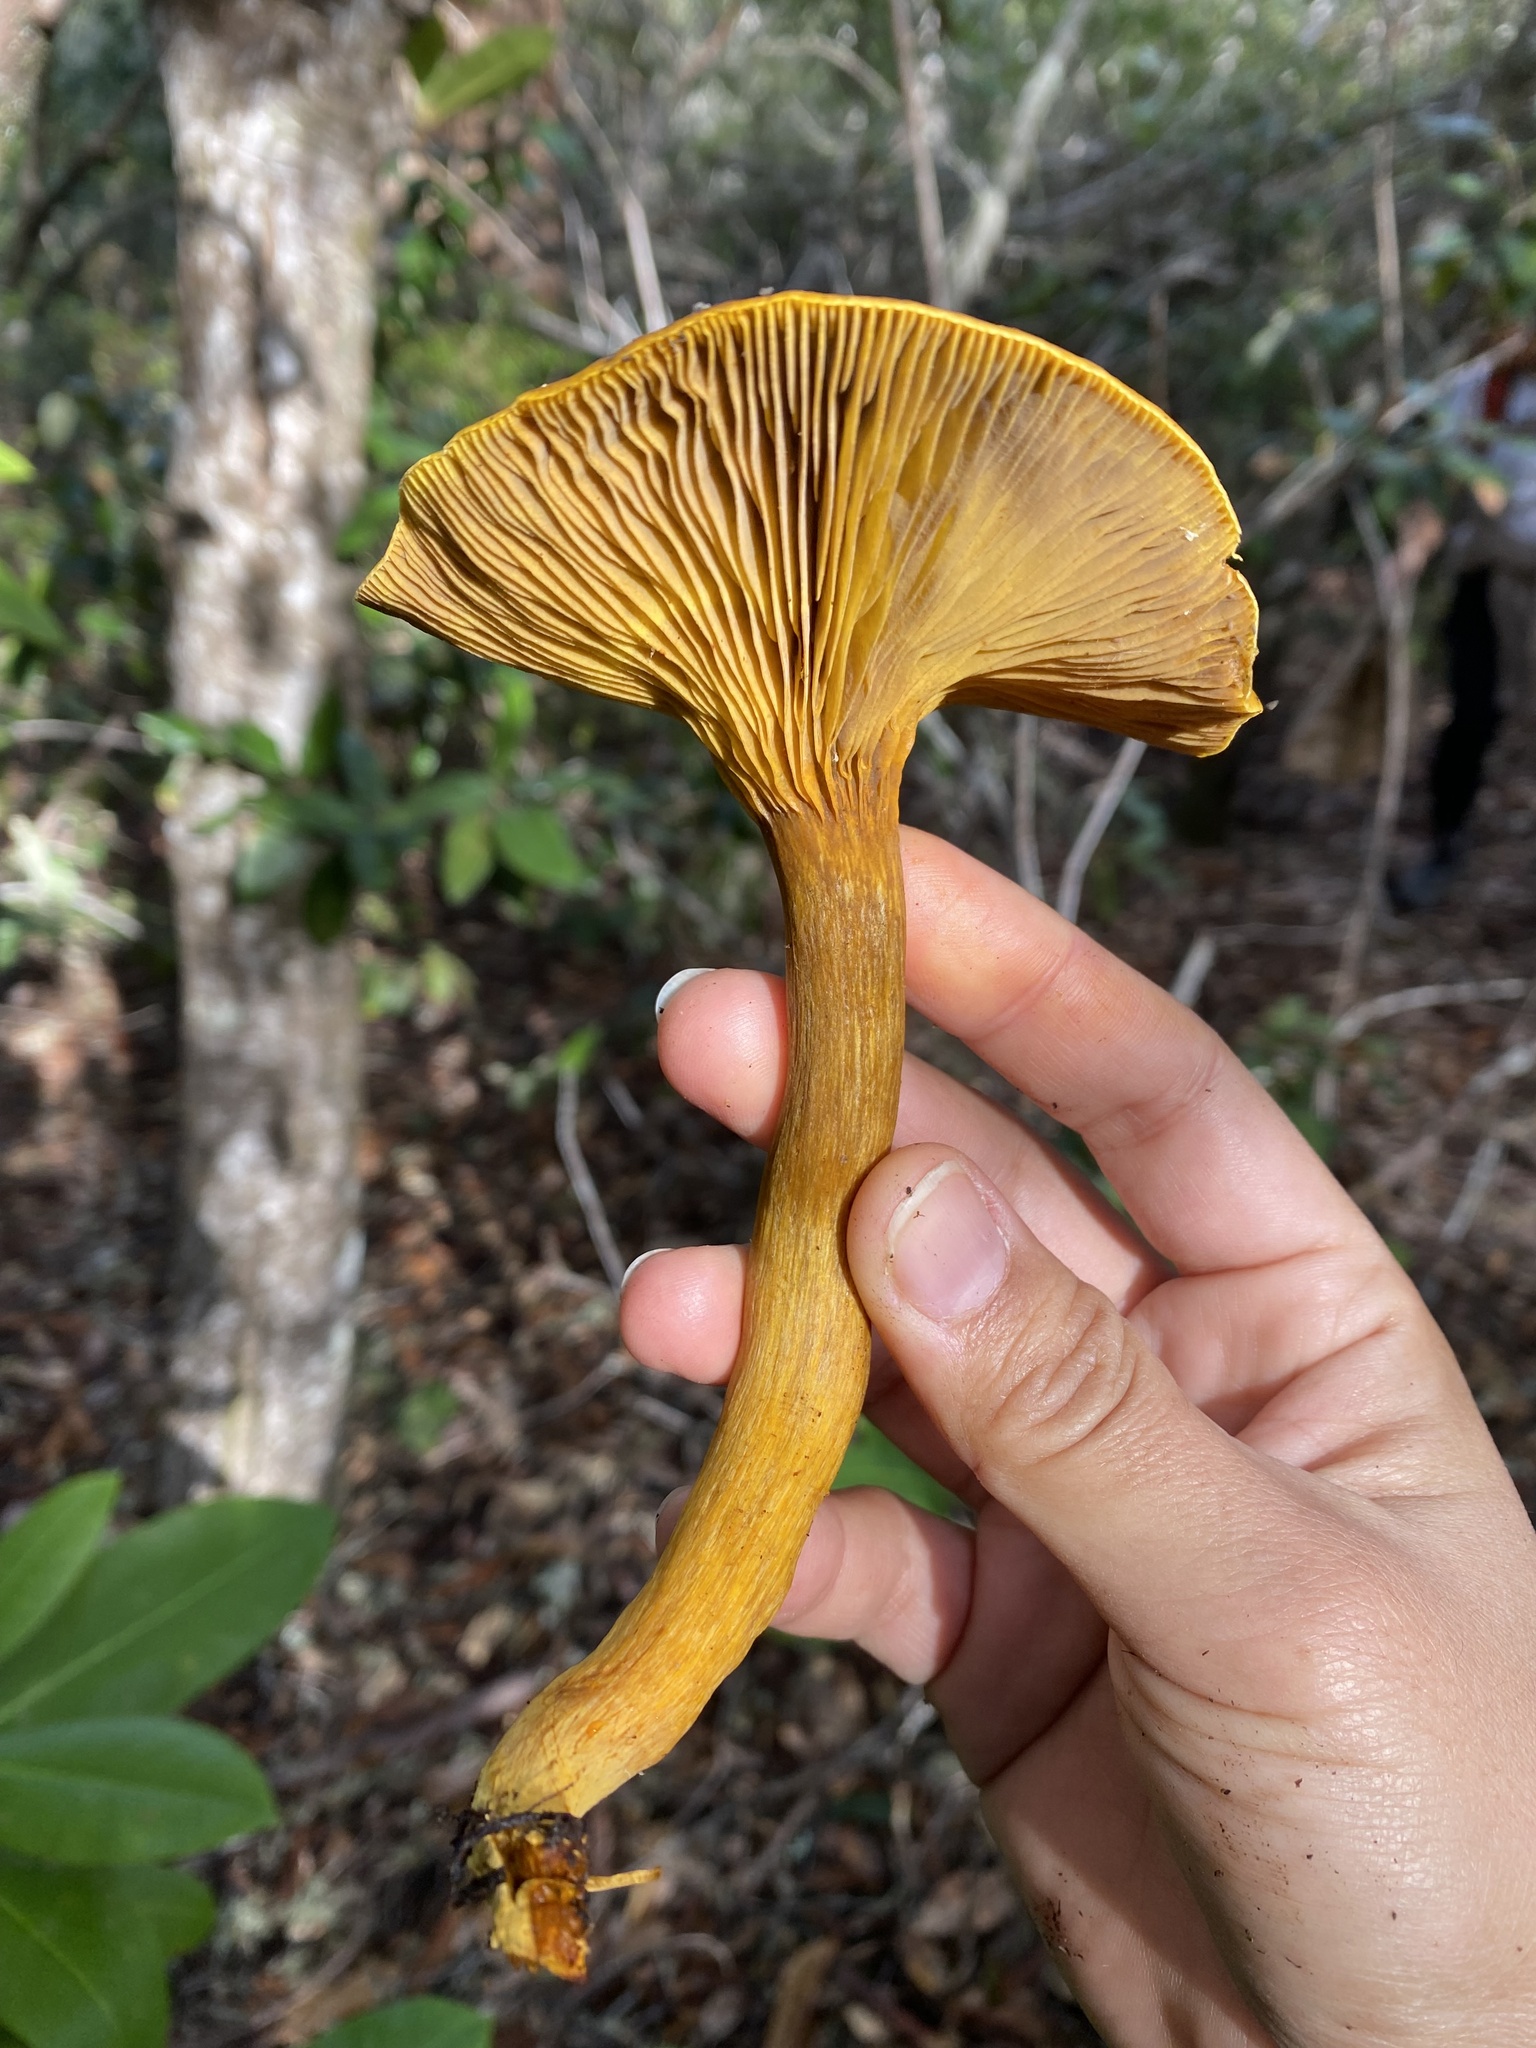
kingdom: Fungi
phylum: Basidiomycota
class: Agaricomycetes
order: Agaricales
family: Omphalotaceae
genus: Omphalotus
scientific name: Omphalotus olivascens
